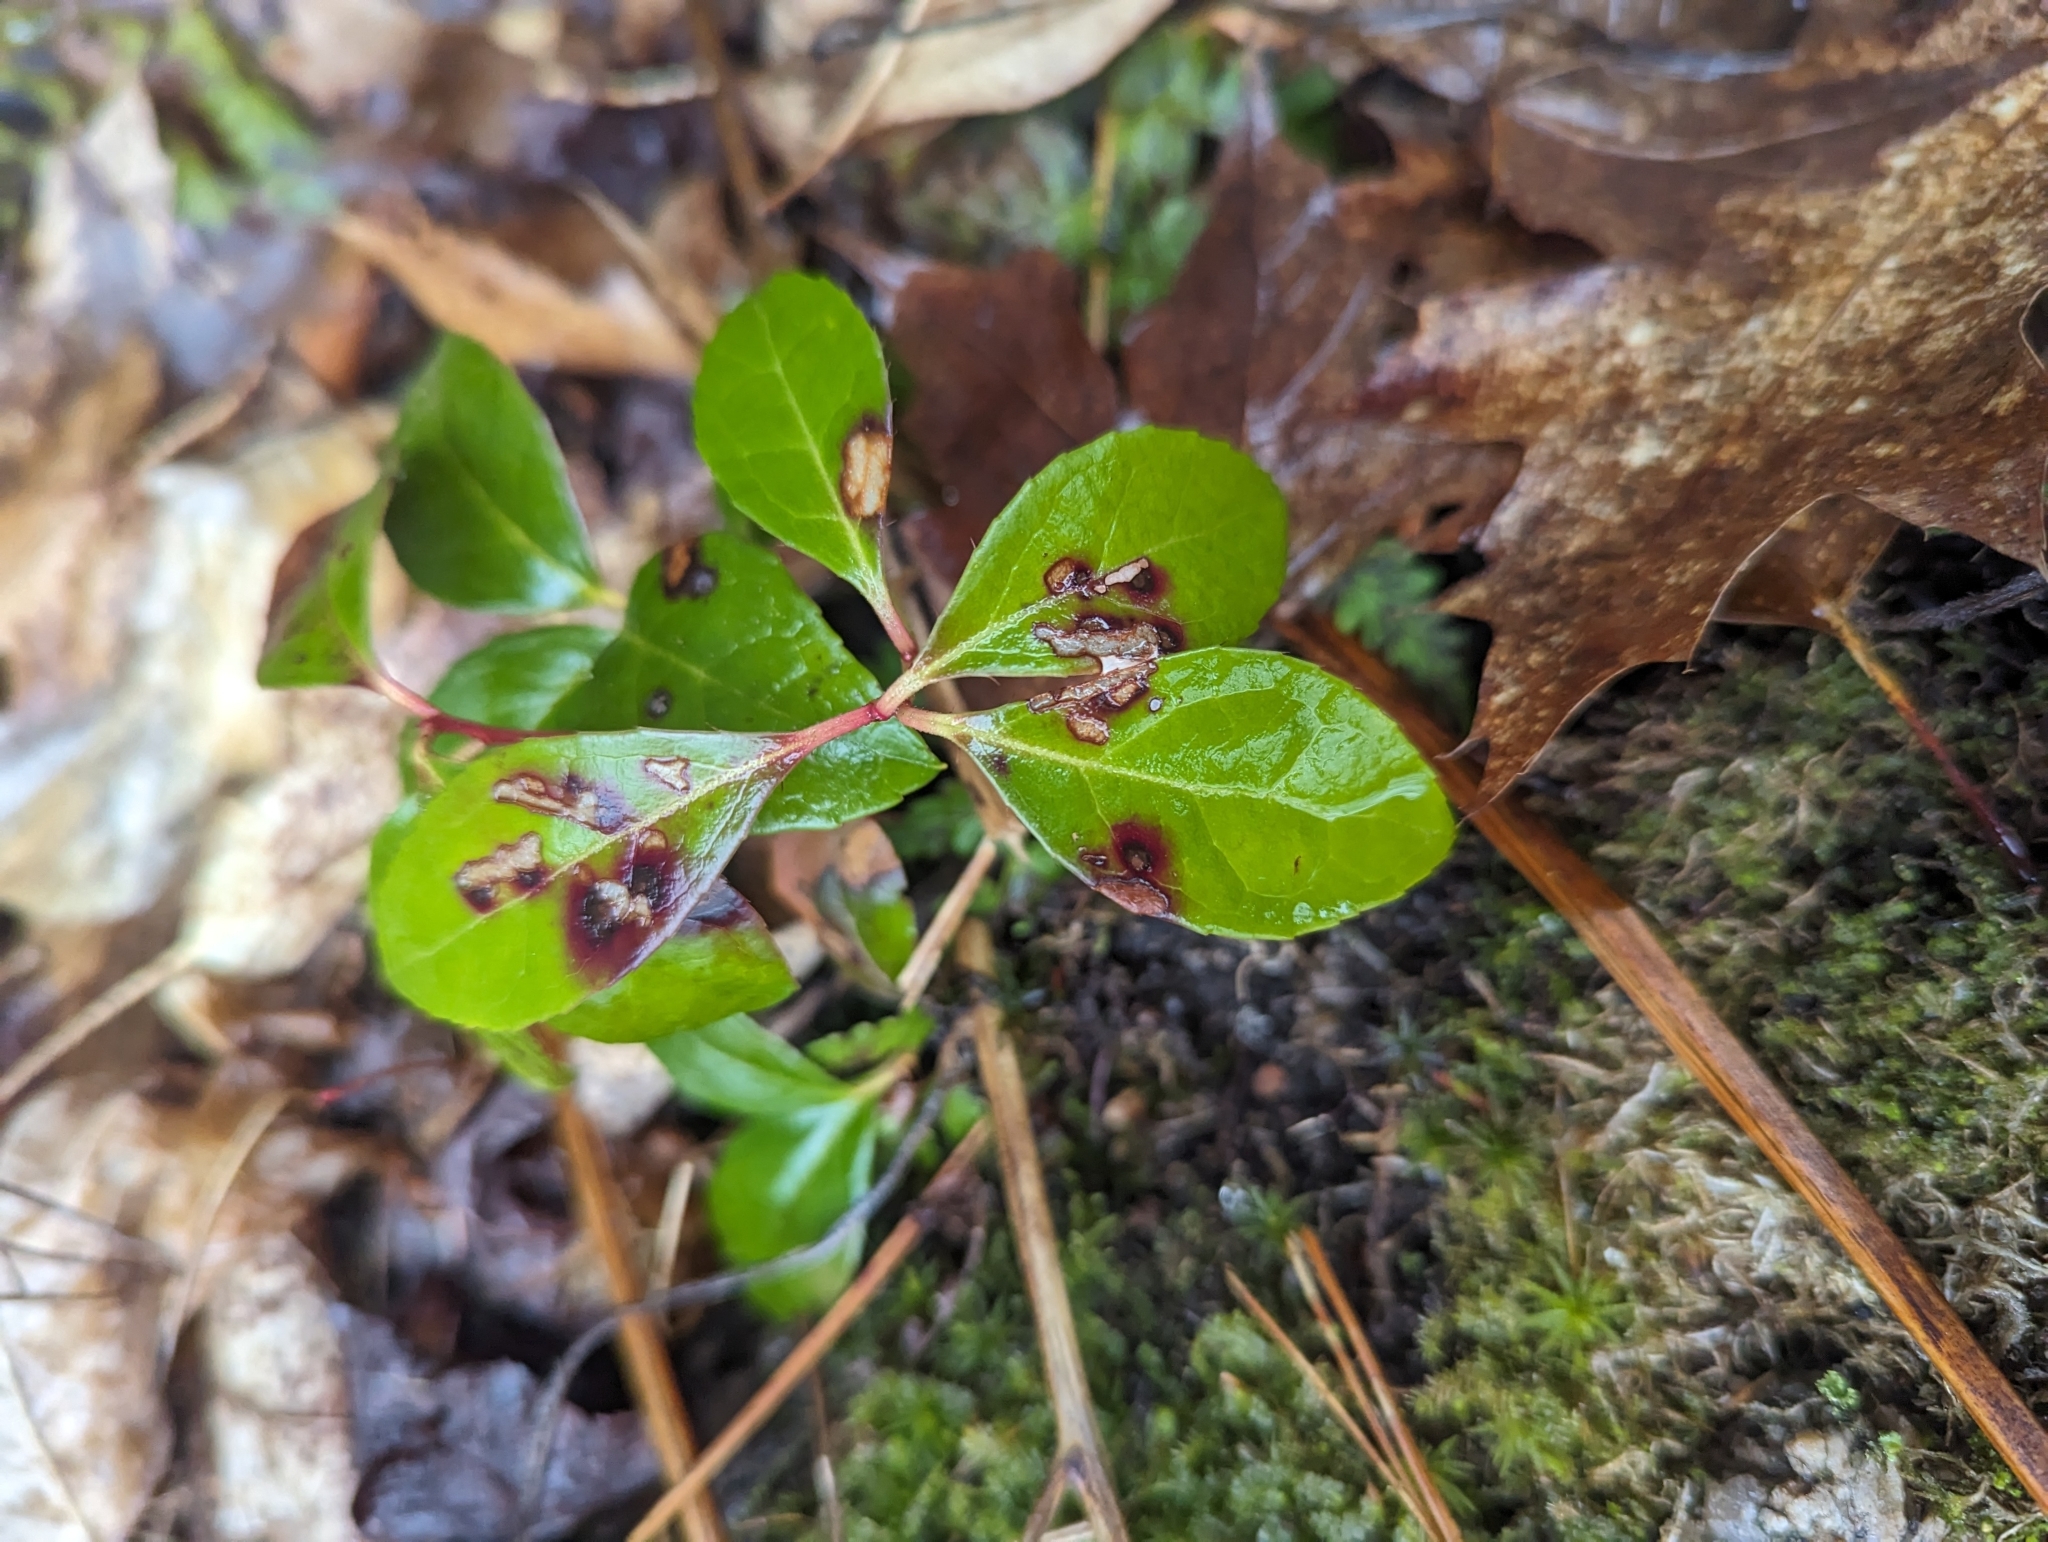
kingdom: Plantae
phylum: Tracheophyta
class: Magnoliopsida
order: Ericales
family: Ericaceae
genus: Gaultheria
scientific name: Gaultheria procumbens
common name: Checkerberry
